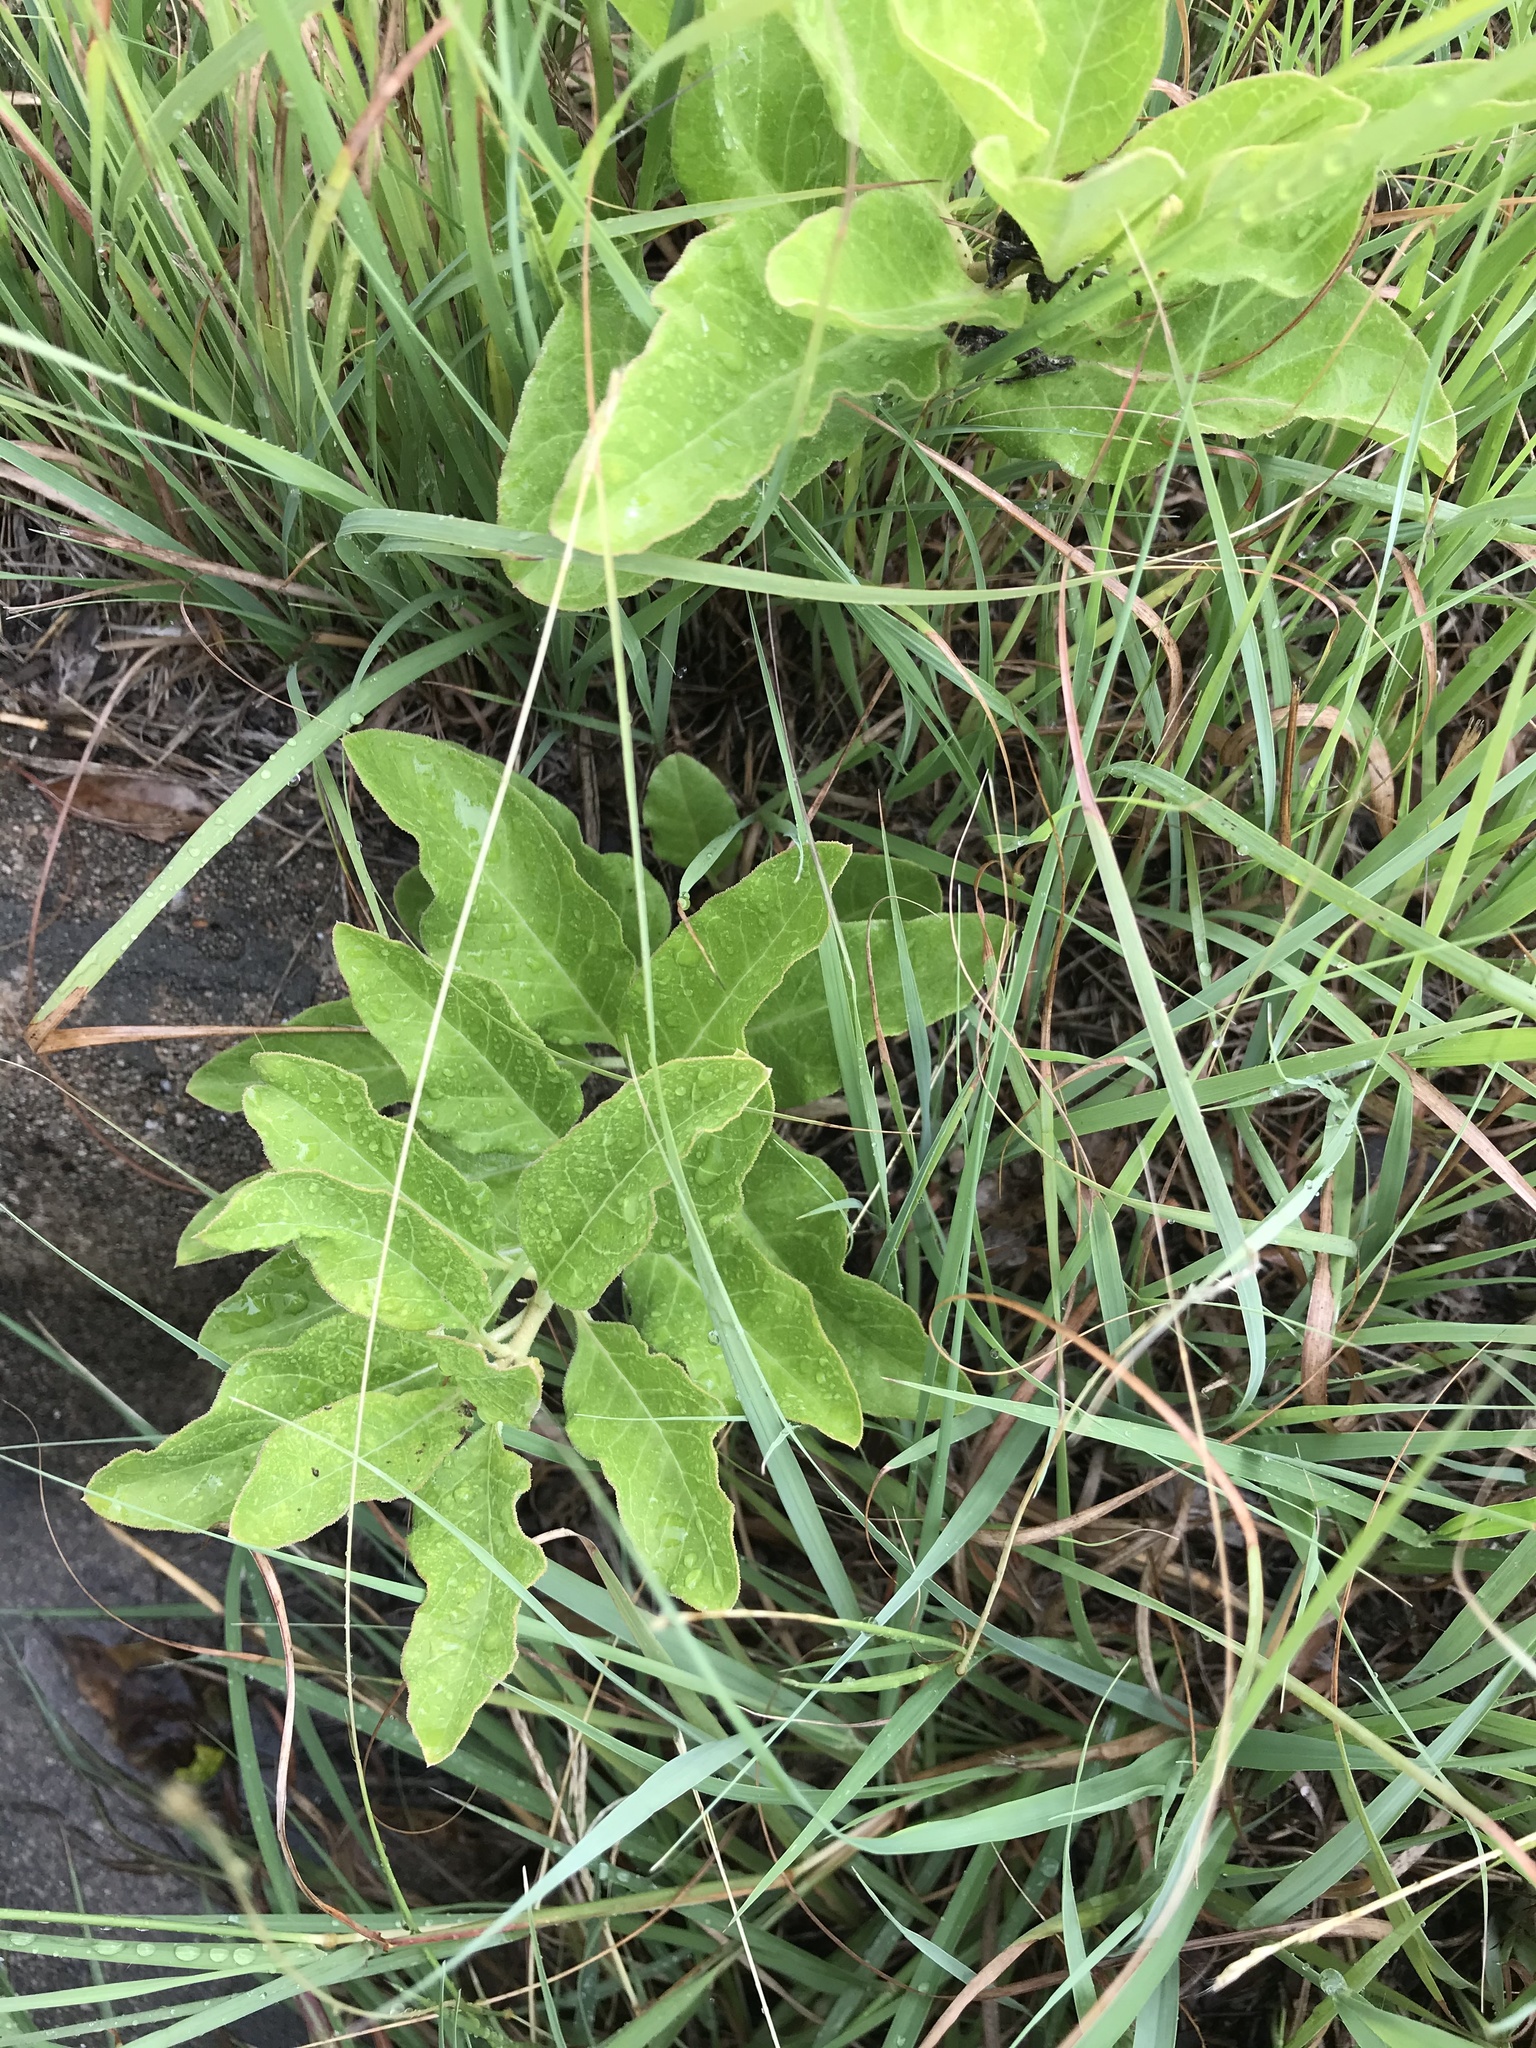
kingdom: Plantae
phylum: Tracheophyta
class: Magnoliopsida
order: Gentianales
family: Apocynaceae
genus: Asclepias
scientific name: Asclepias oenotheroides
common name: Zizotes milkweed
